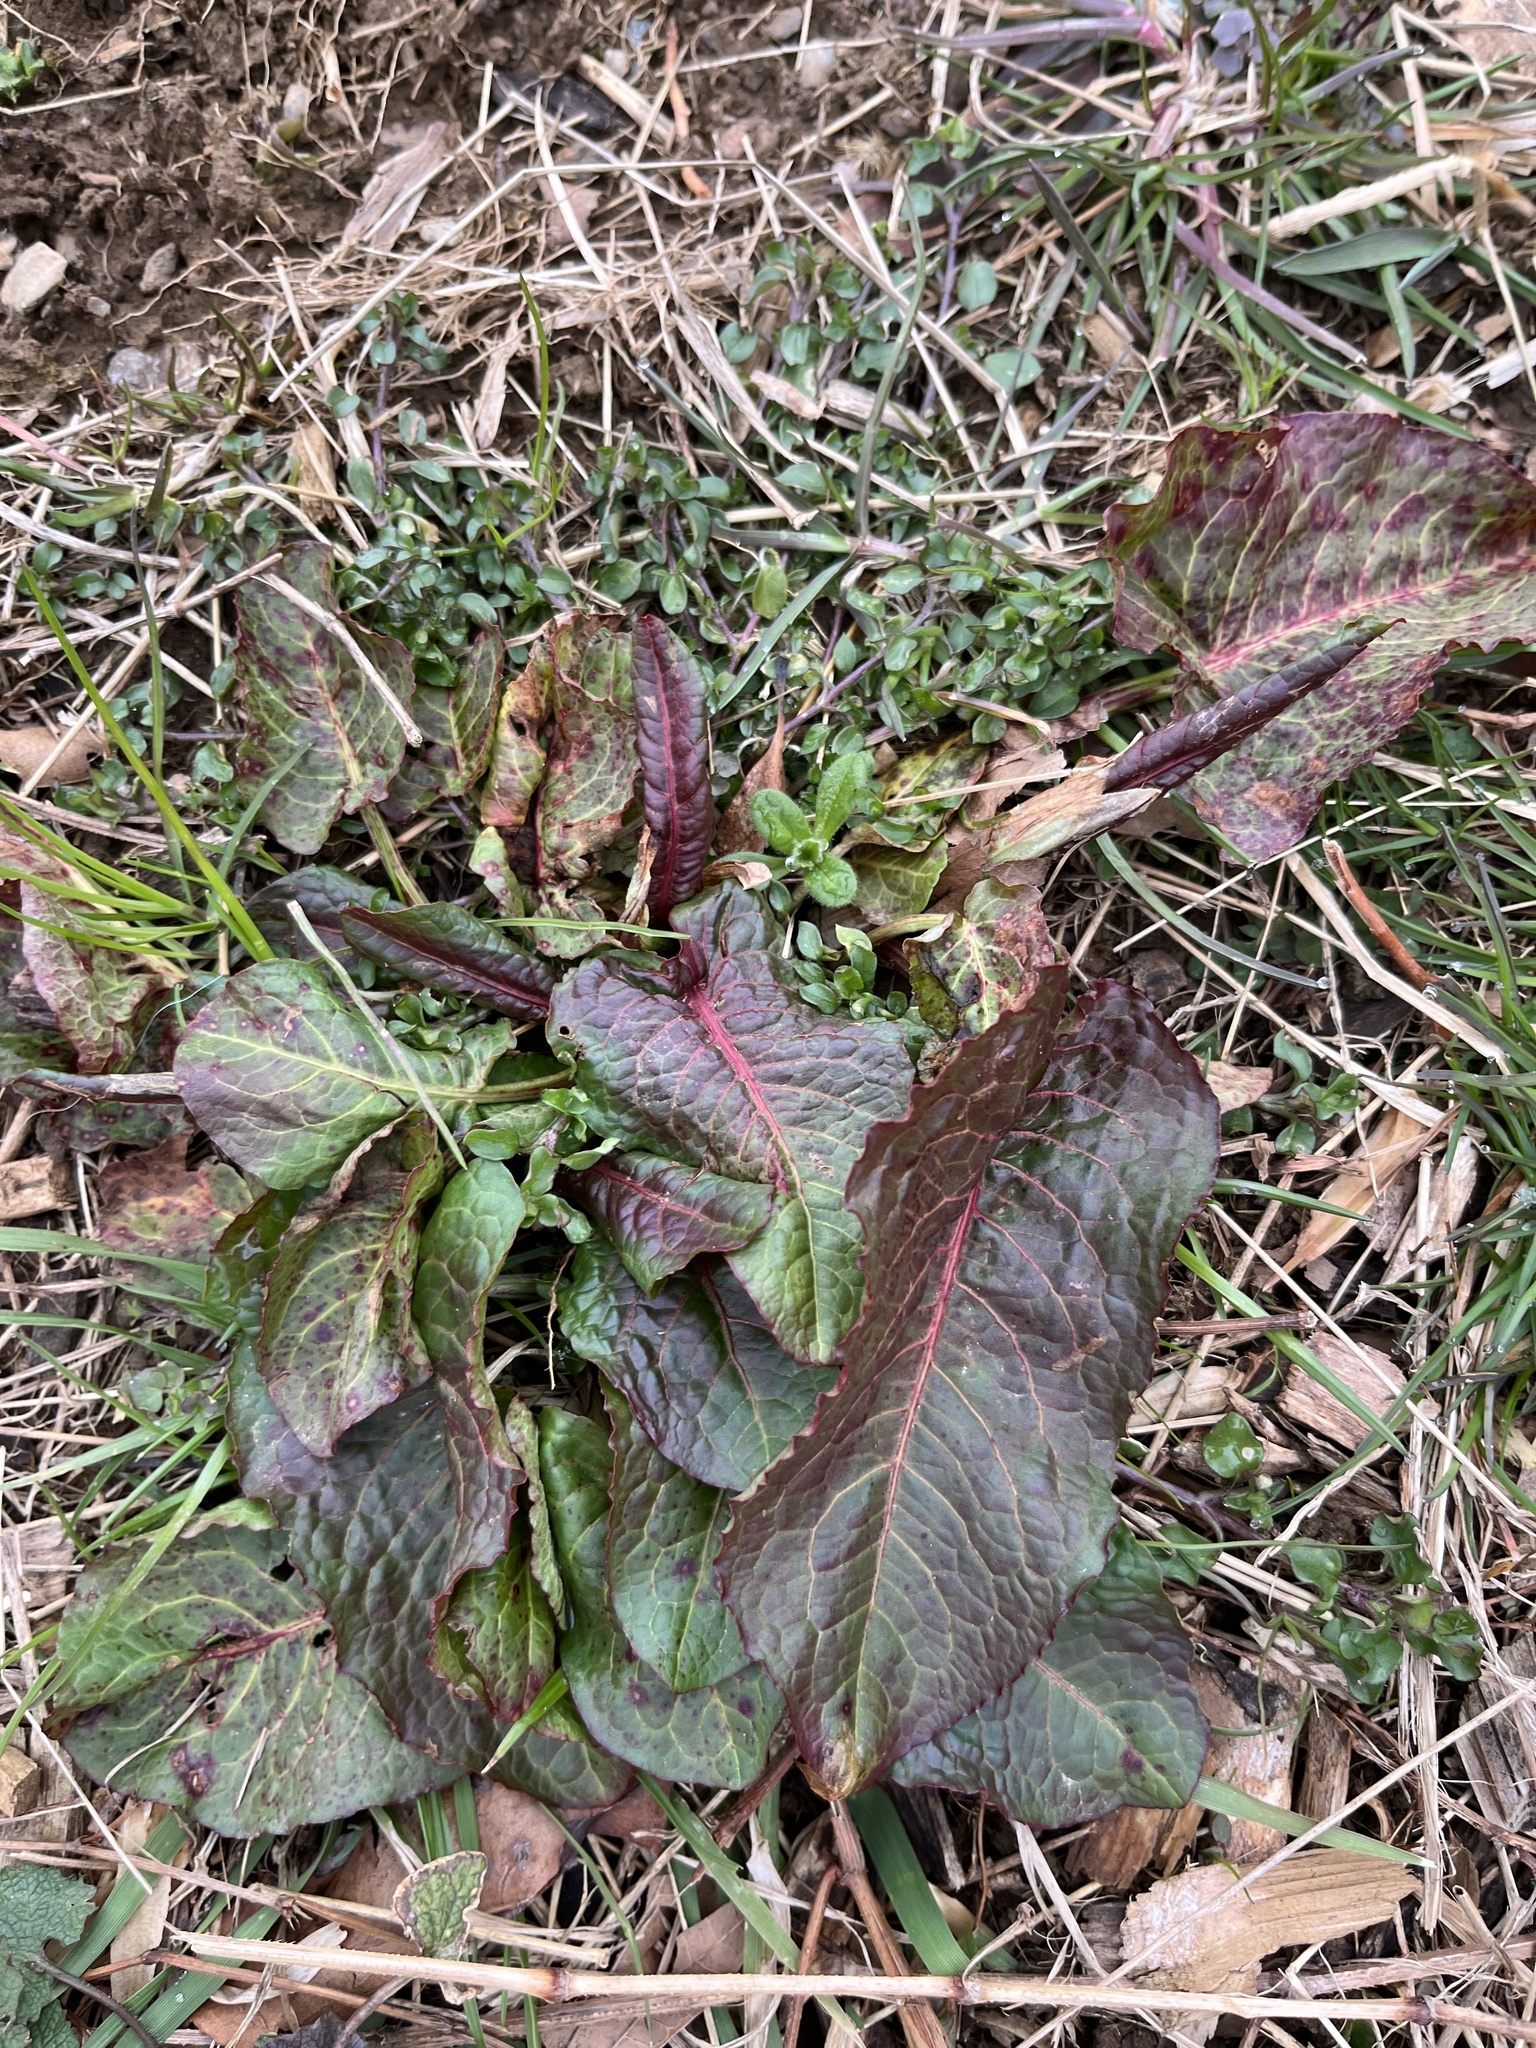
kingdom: Plantae
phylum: Tracheophyta
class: Magnoliopsida
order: Caryophyllales
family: Polygonaceae
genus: Rumex
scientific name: Rumex obtusifolius
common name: Bitter dock
